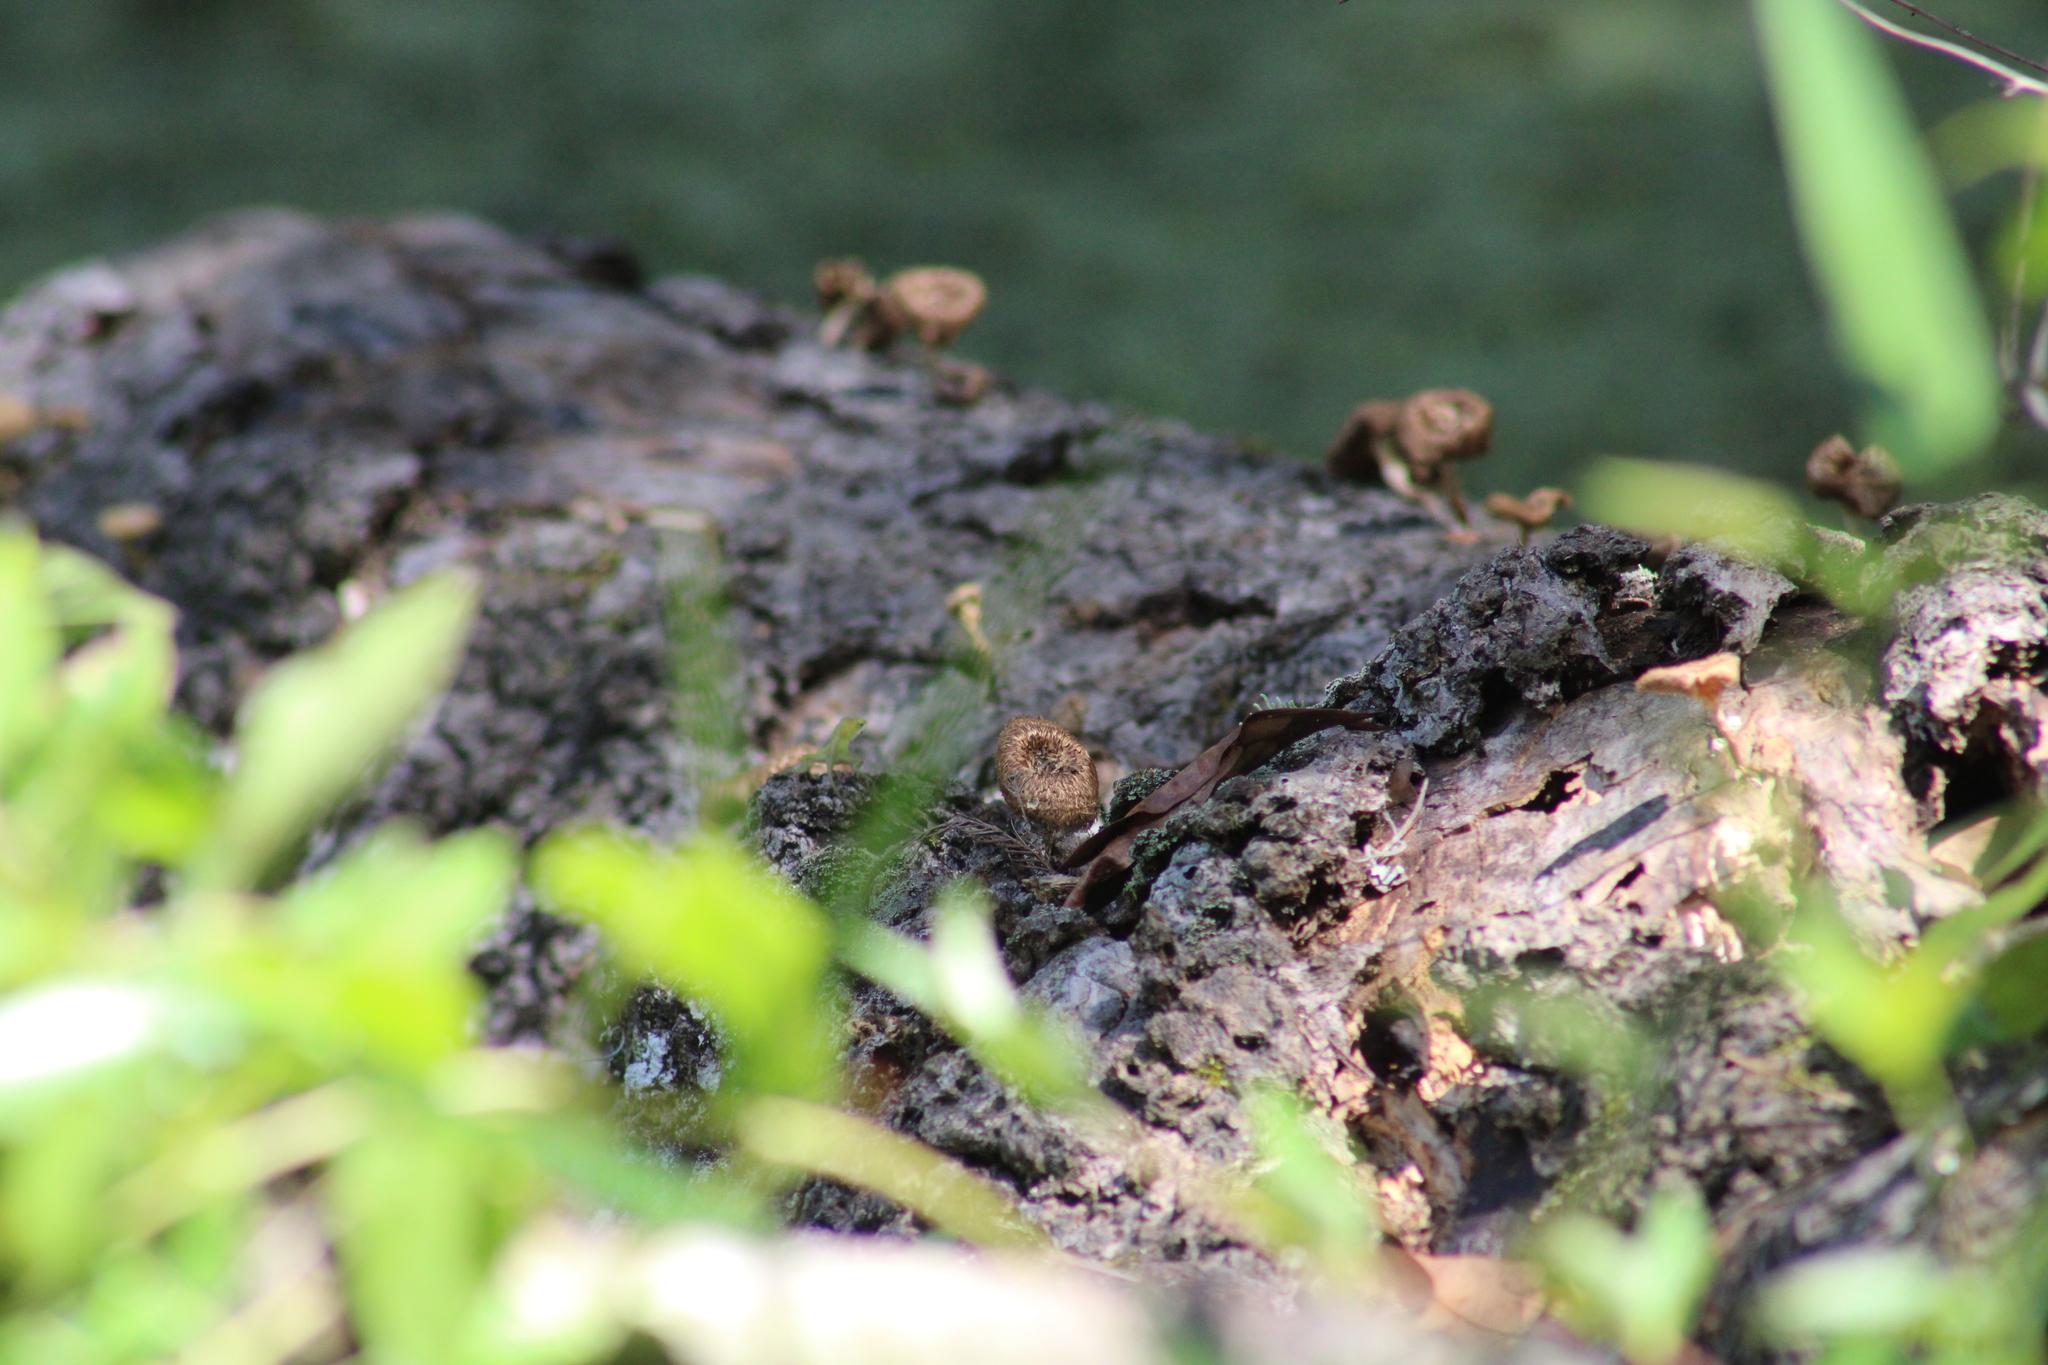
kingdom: Fungi
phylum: Basidiomycota
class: Agaricomycetes
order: Polyporales
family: Polyporaceae
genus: Lentinus
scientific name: Lentinus crinitus
